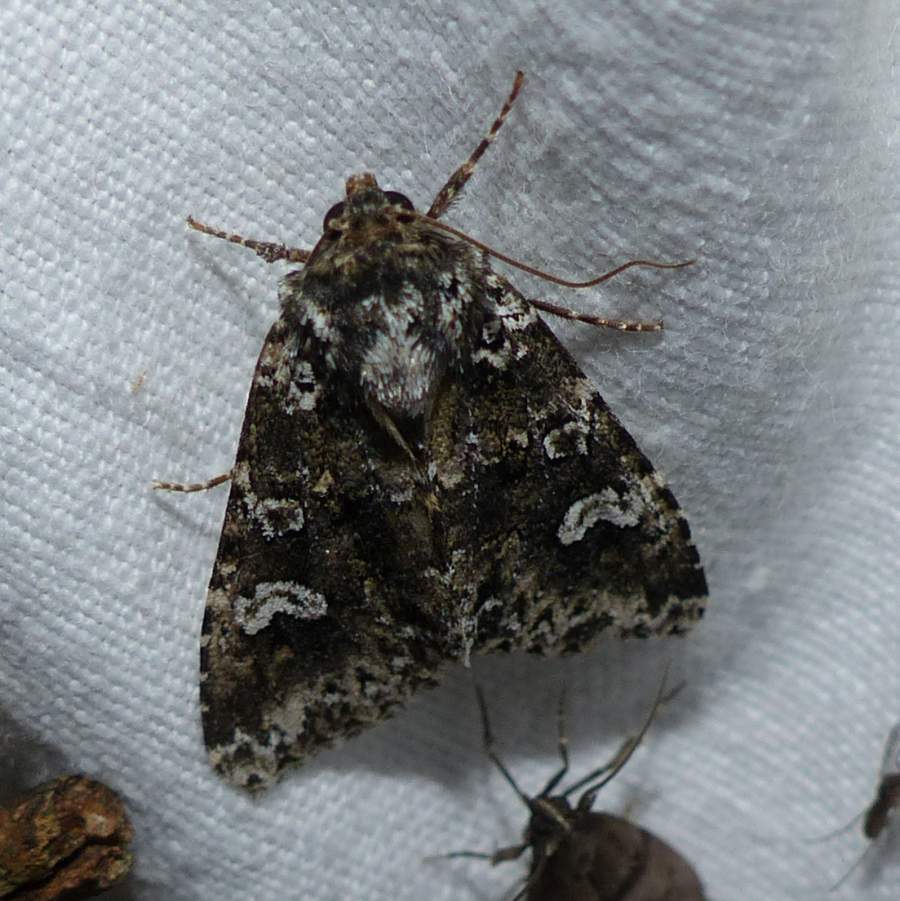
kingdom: Animalia
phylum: Arthropoda
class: Insecta
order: Lepidoptera
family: Noctuidae
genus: Melanchra
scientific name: Melanchra adjuncta
